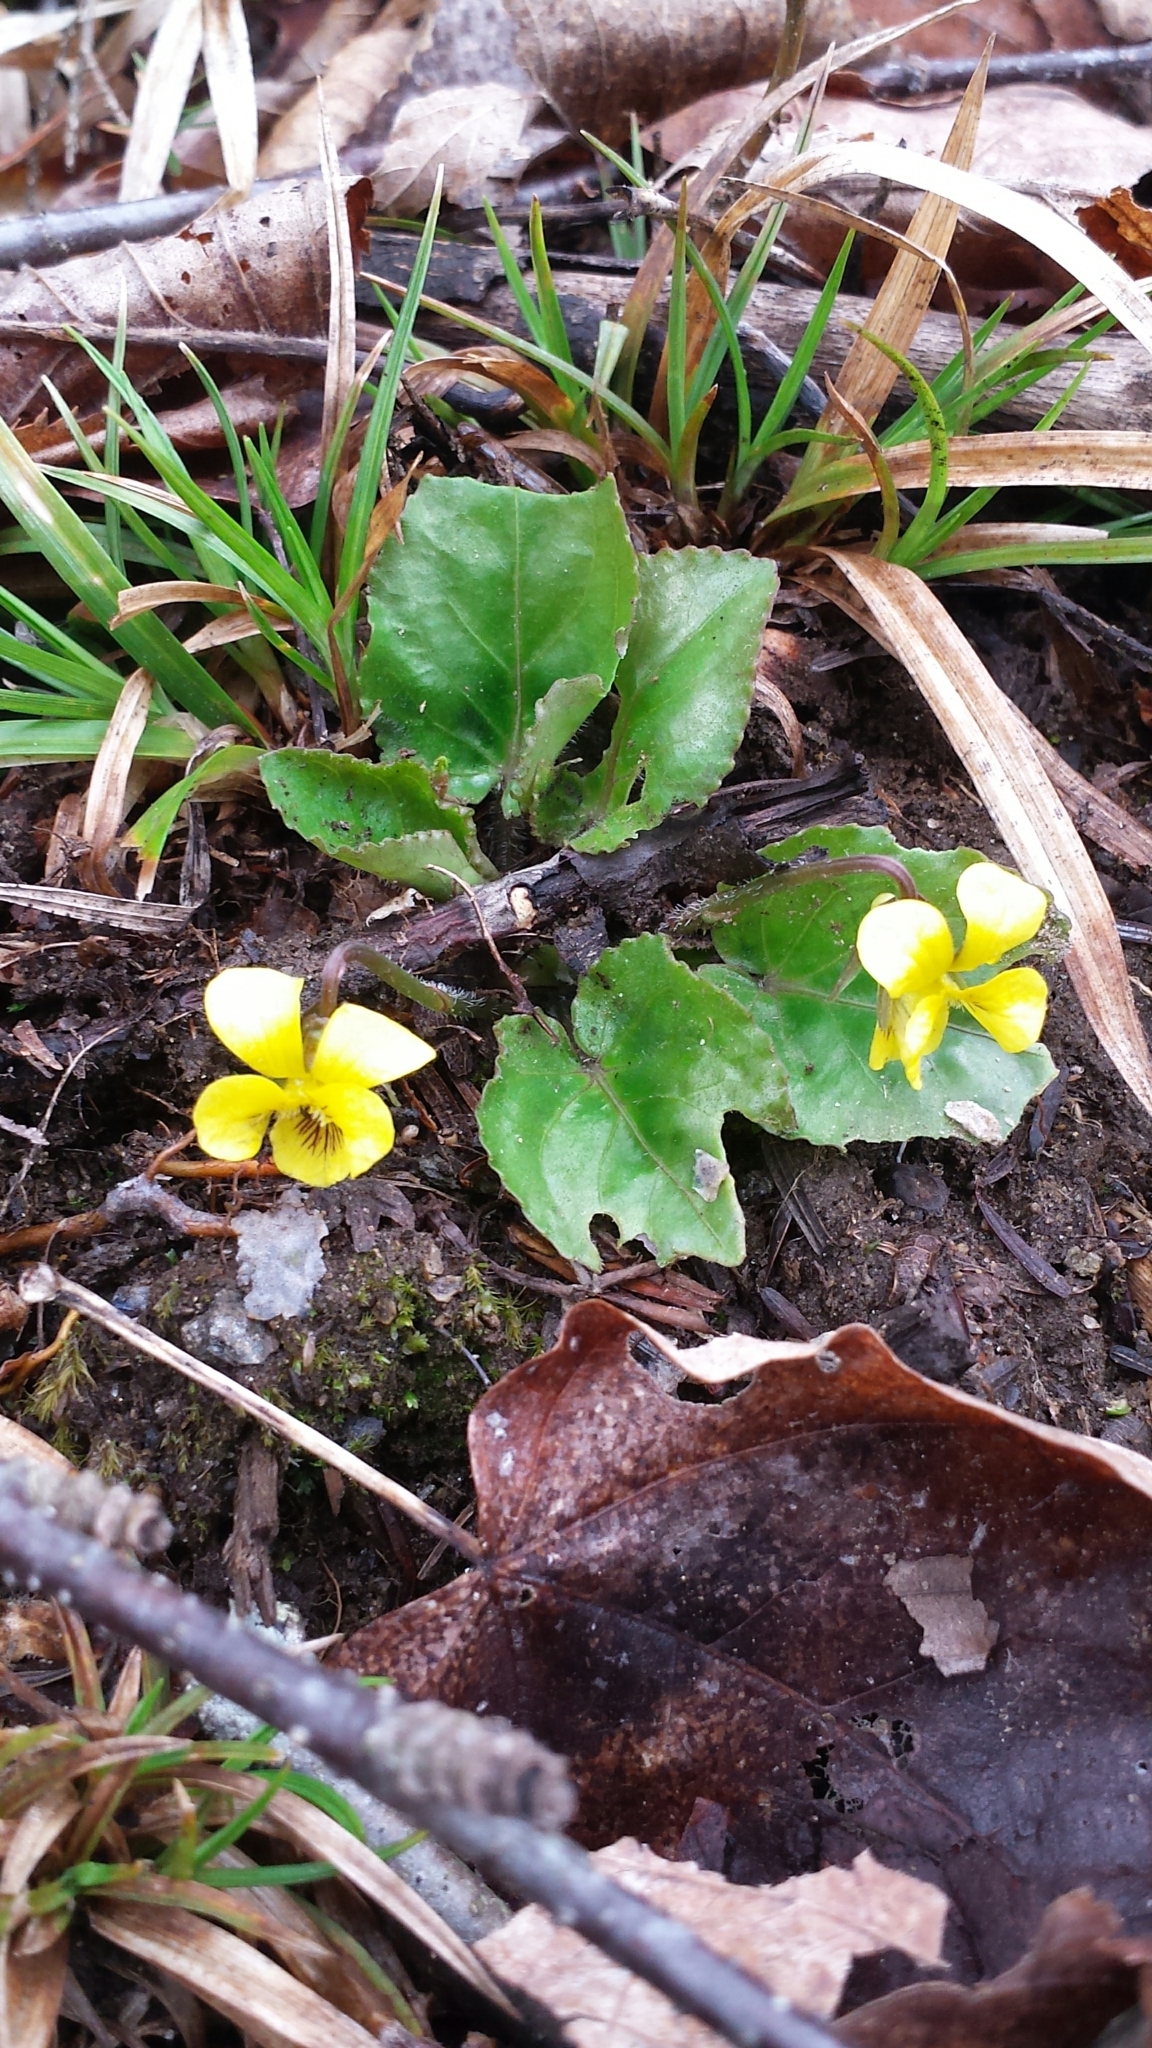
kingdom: Plantae
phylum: Tracheophyta
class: Magnoliopsida
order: Malpighiales
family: Violaceae
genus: Viola
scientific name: Viola rotundifolia
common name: Early yellow violet
